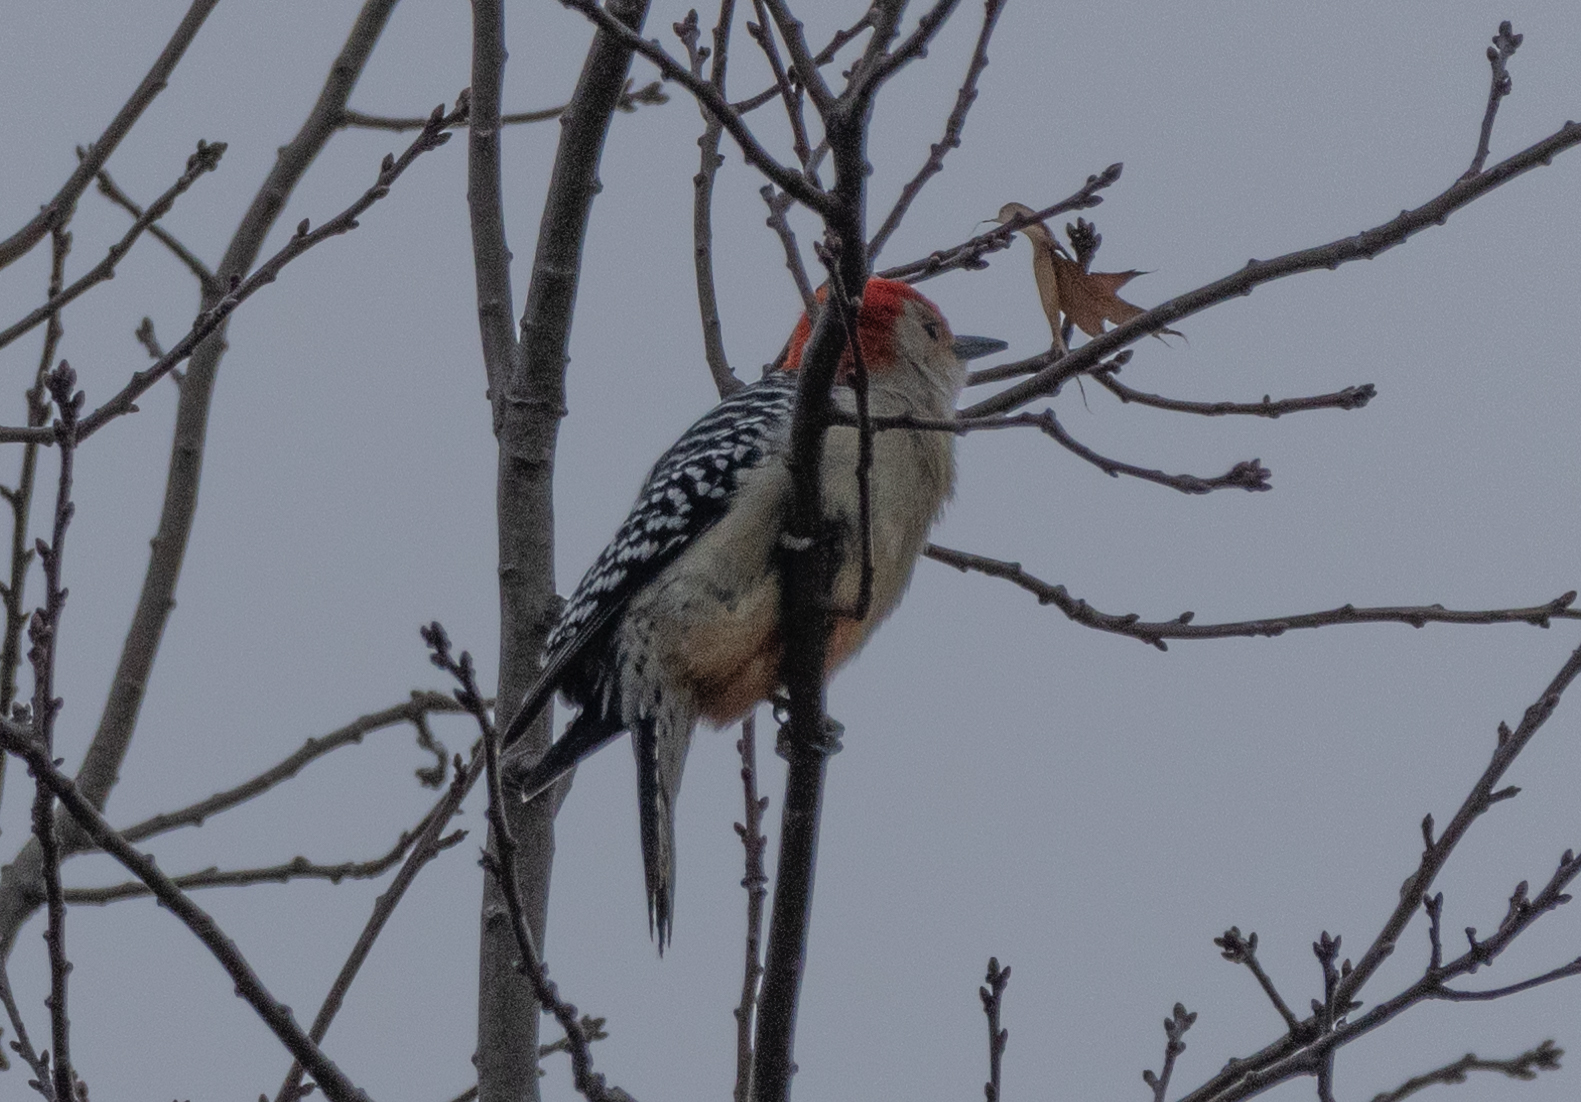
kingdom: Animalia
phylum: Chordata
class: Aves
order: Piciformes
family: Picidae
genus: Melanerpes
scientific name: Melanerpes carolinus
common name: Red-bellied woodpecker
